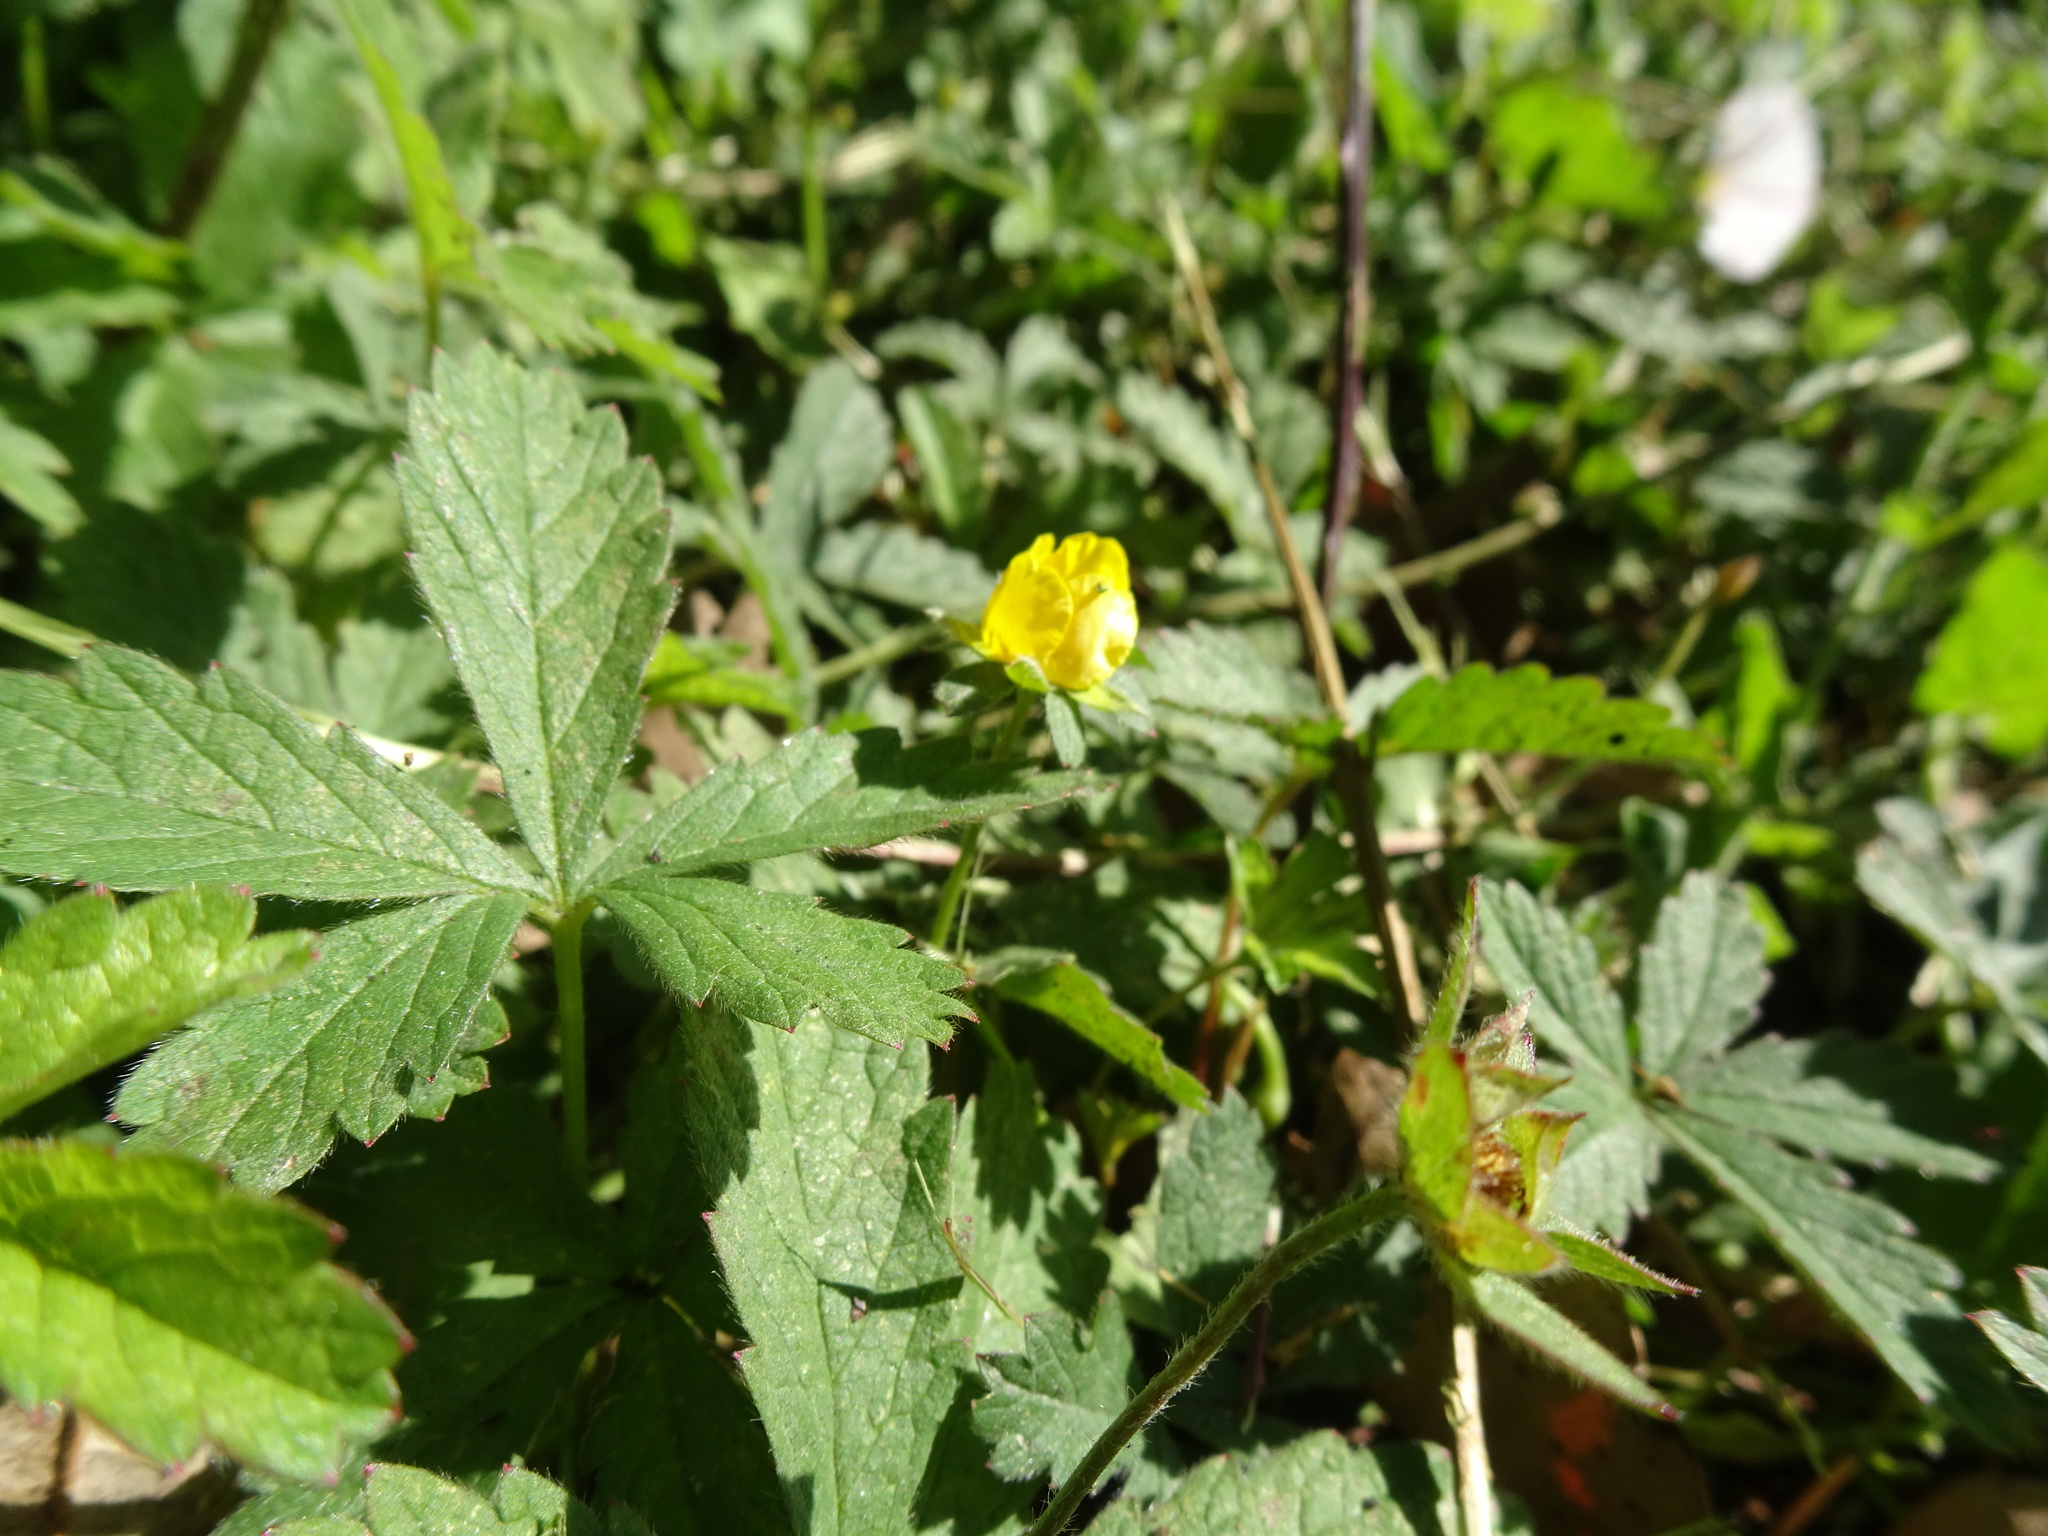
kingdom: Plantae
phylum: Tracheophyta
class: Magnoliopsida
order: Rosales
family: Rosaceae
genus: Potentilla
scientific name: Potentilla reptans
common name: Creeping cinquefoil
